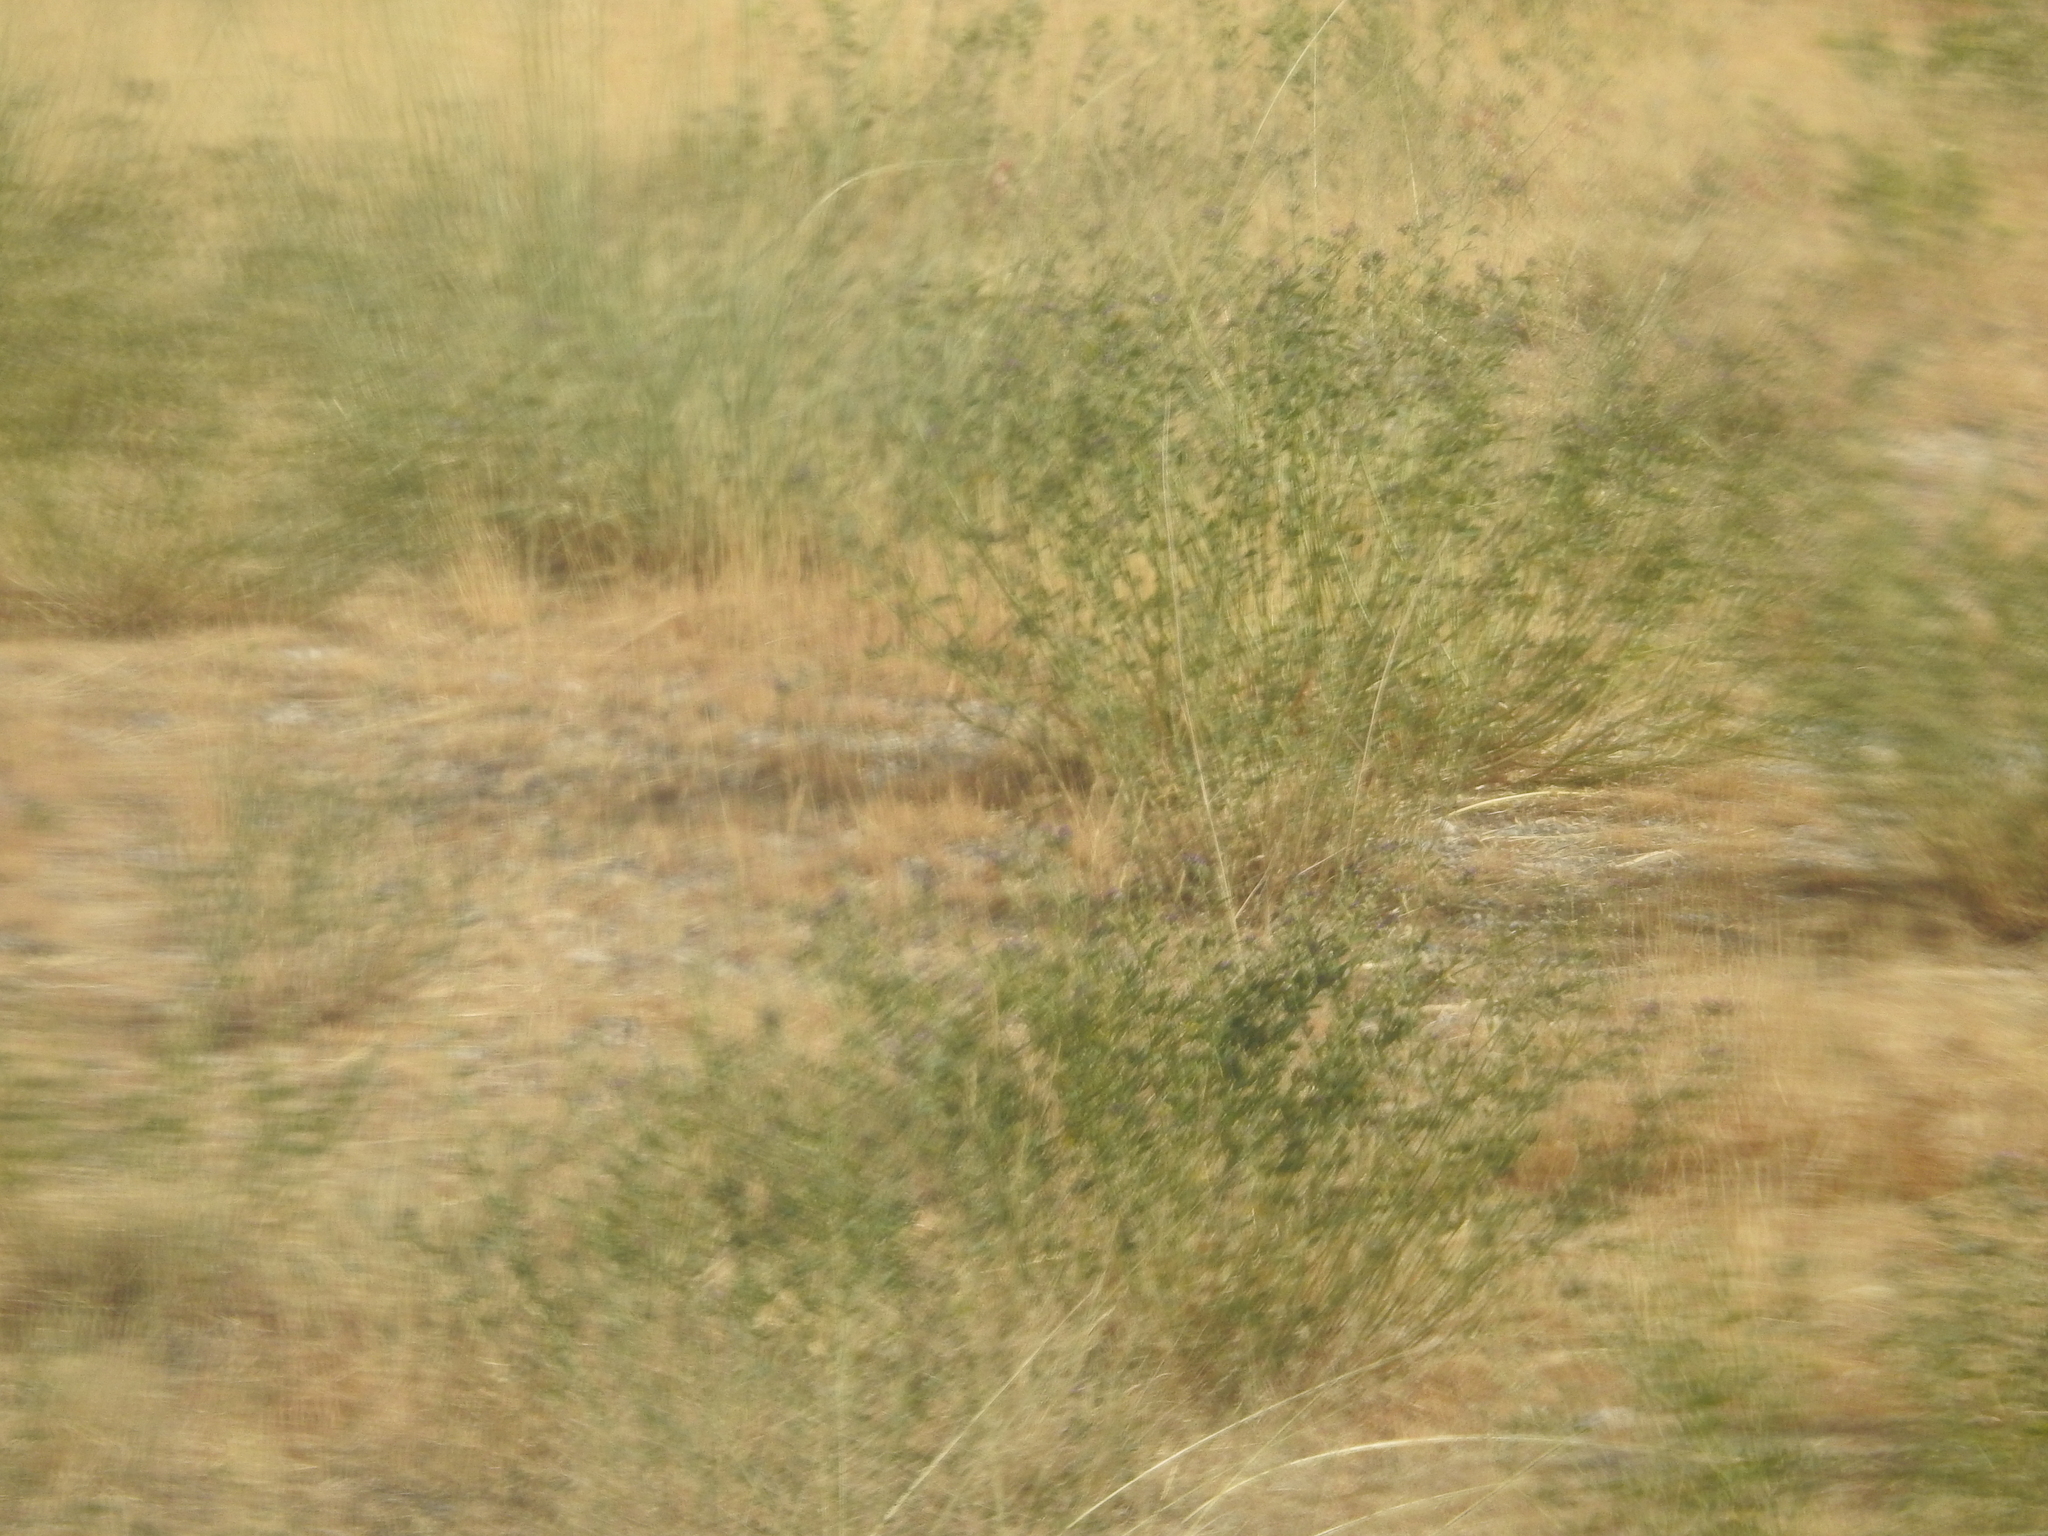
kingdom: Plantae
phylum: Tracheophyta
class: Magnoliopsida
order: Fabales
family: Fabaceae
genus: Medicago
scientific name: Medicago sativa
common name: Alfalfa
